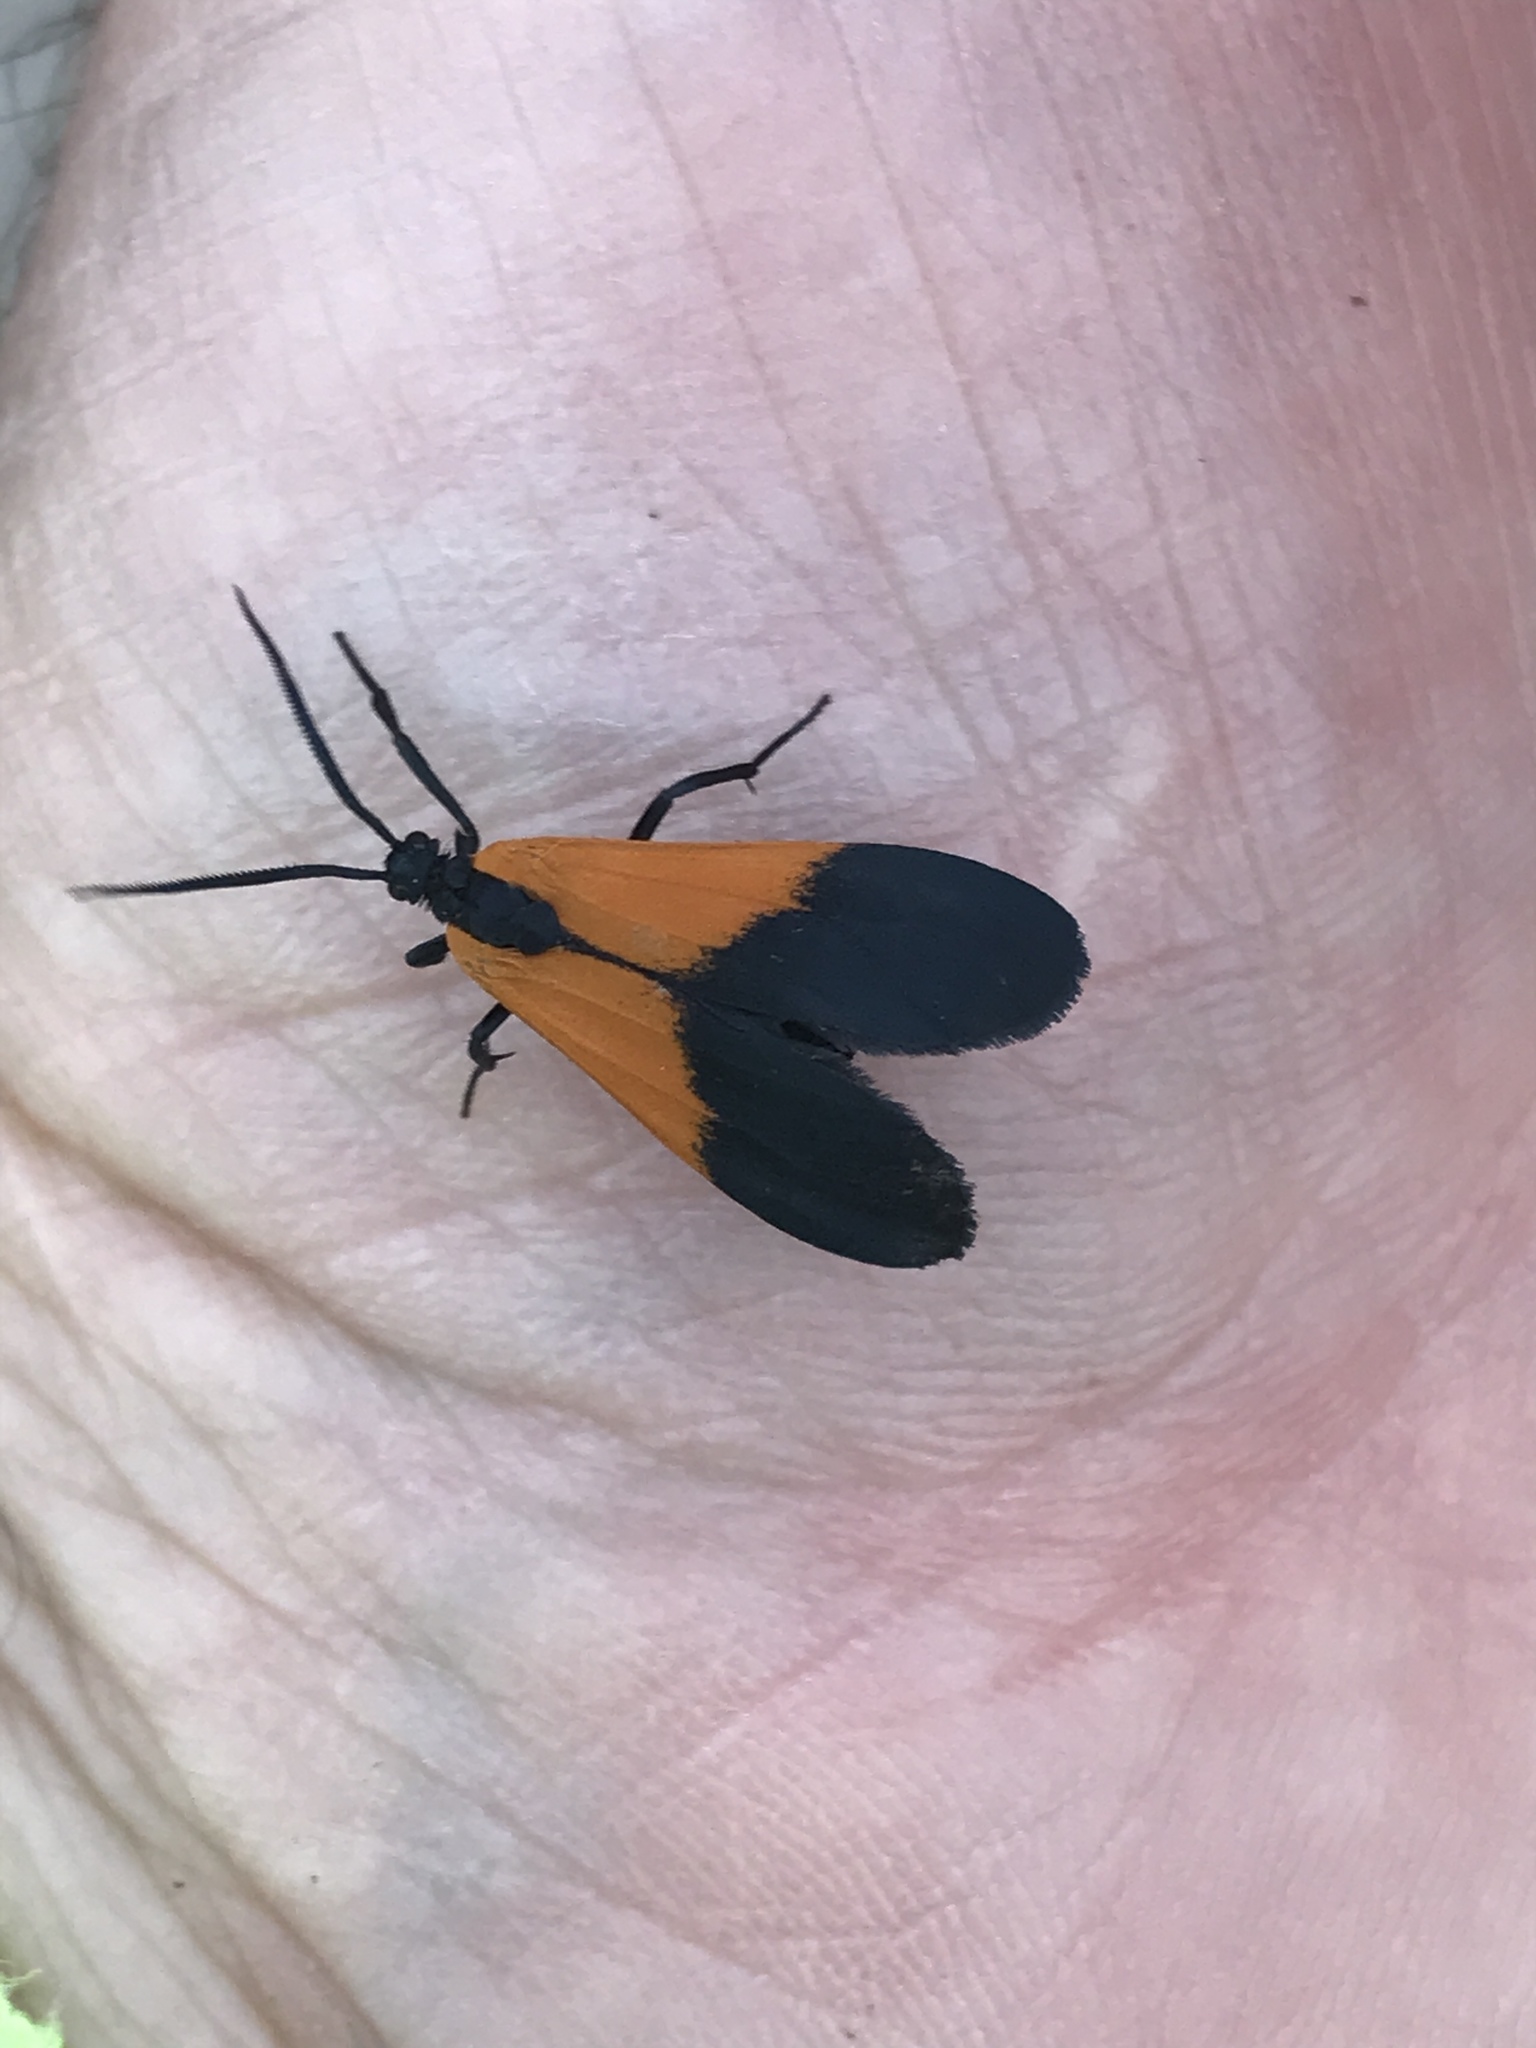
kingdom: Animalia
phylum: Arthropoda
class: Insecta
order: Lepidoptera
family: Erebidae
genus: Lycomorpha
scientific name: Lycomorpha pholus
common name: Black-and-yellow lichen moth
